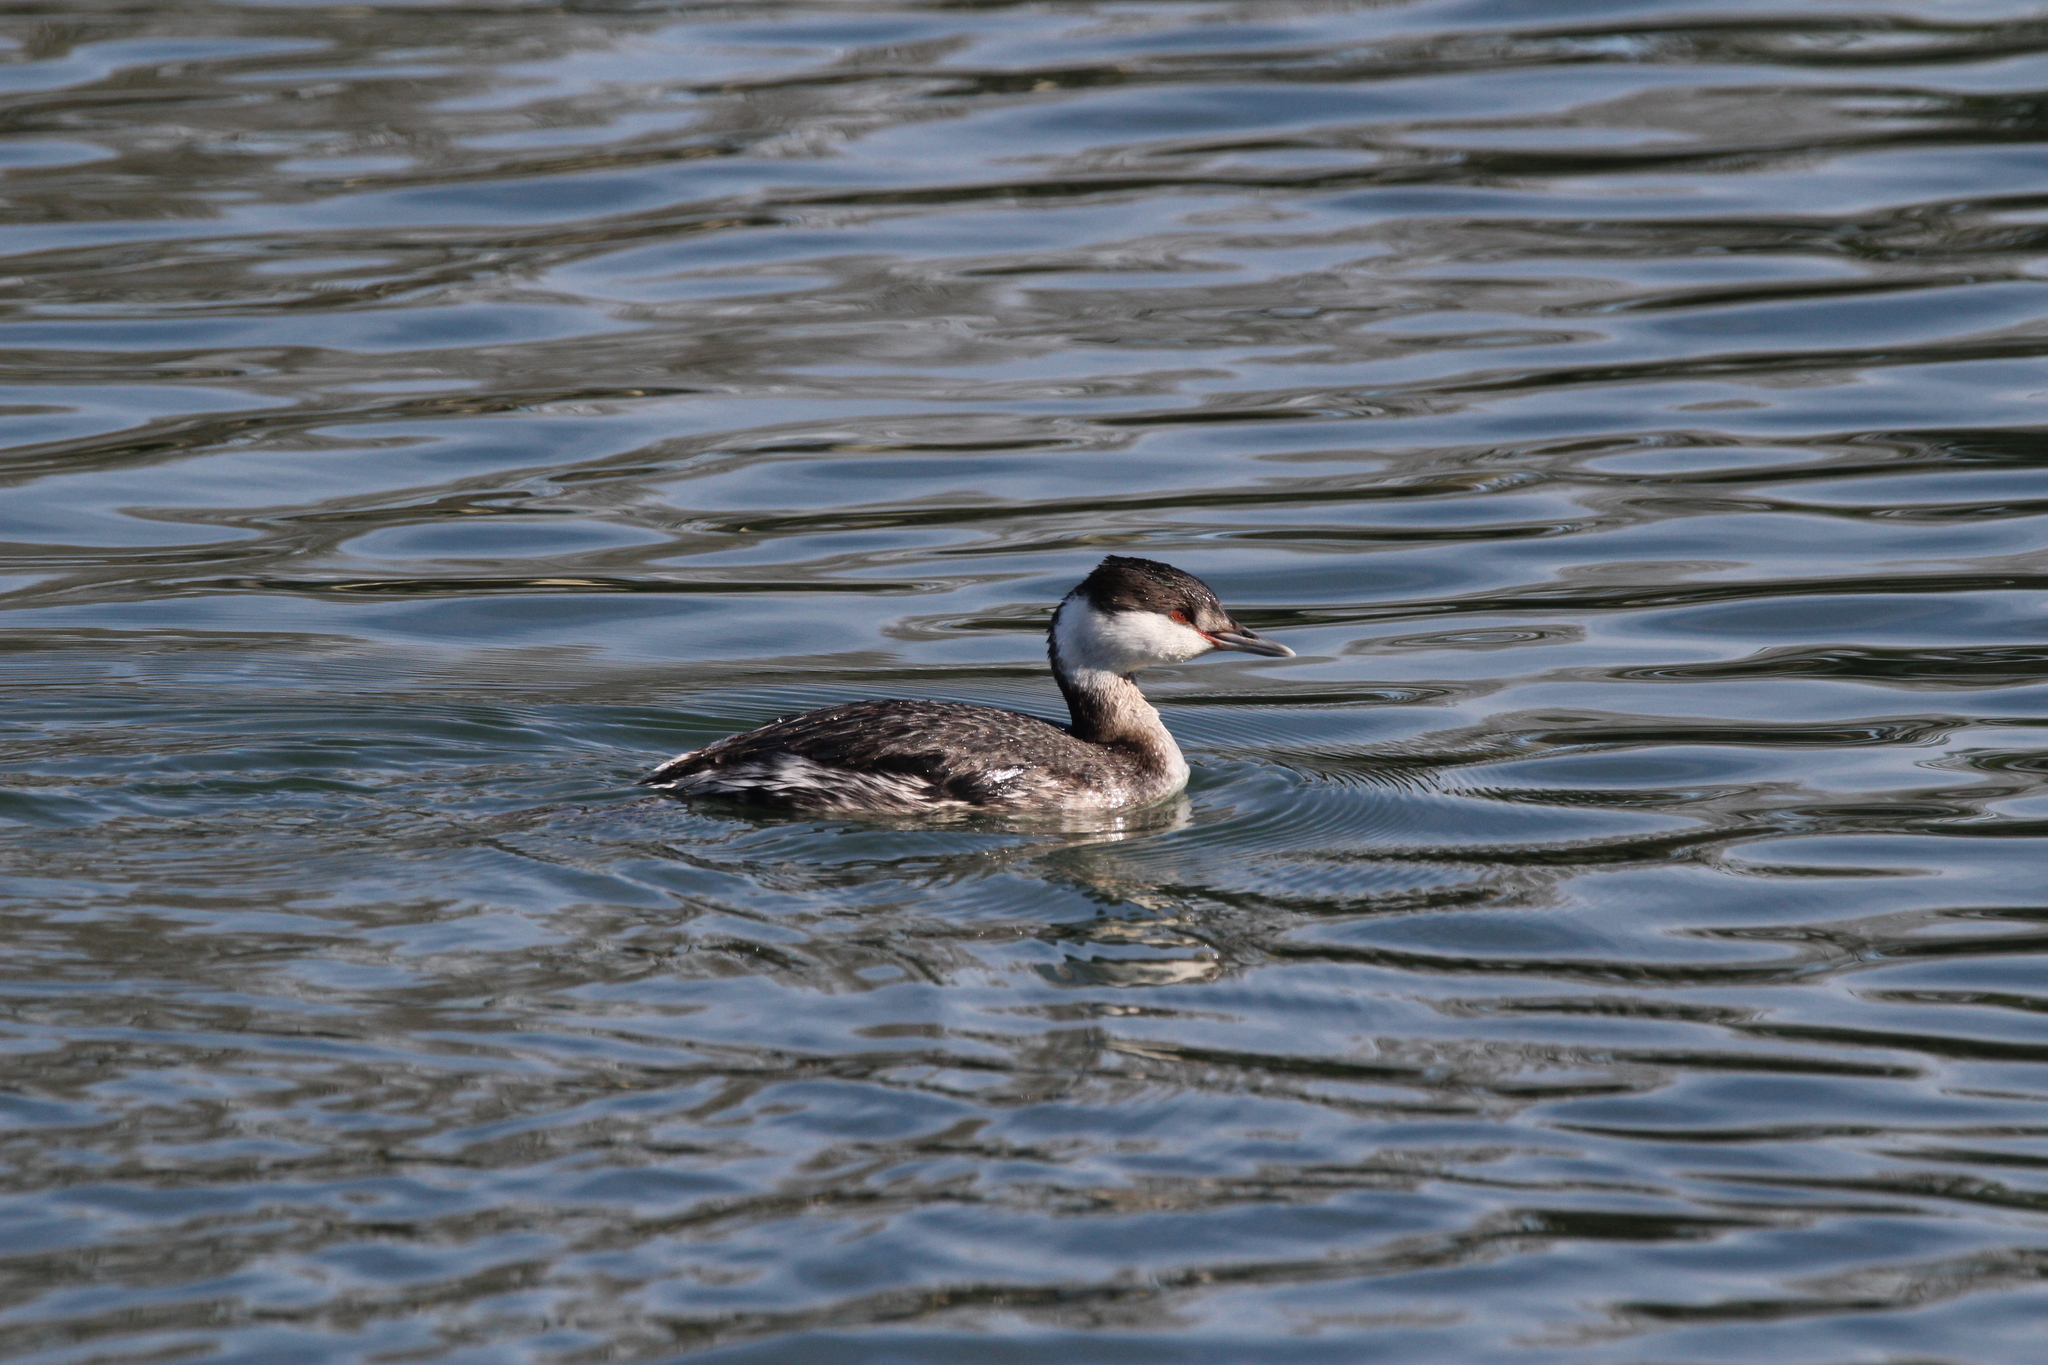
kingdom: Animalia
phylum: Chordata
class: Aves
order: Podicipediformes
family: Podicipedidae
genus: Podiceps
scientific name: Podiceps auritus
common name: Horned grebe
